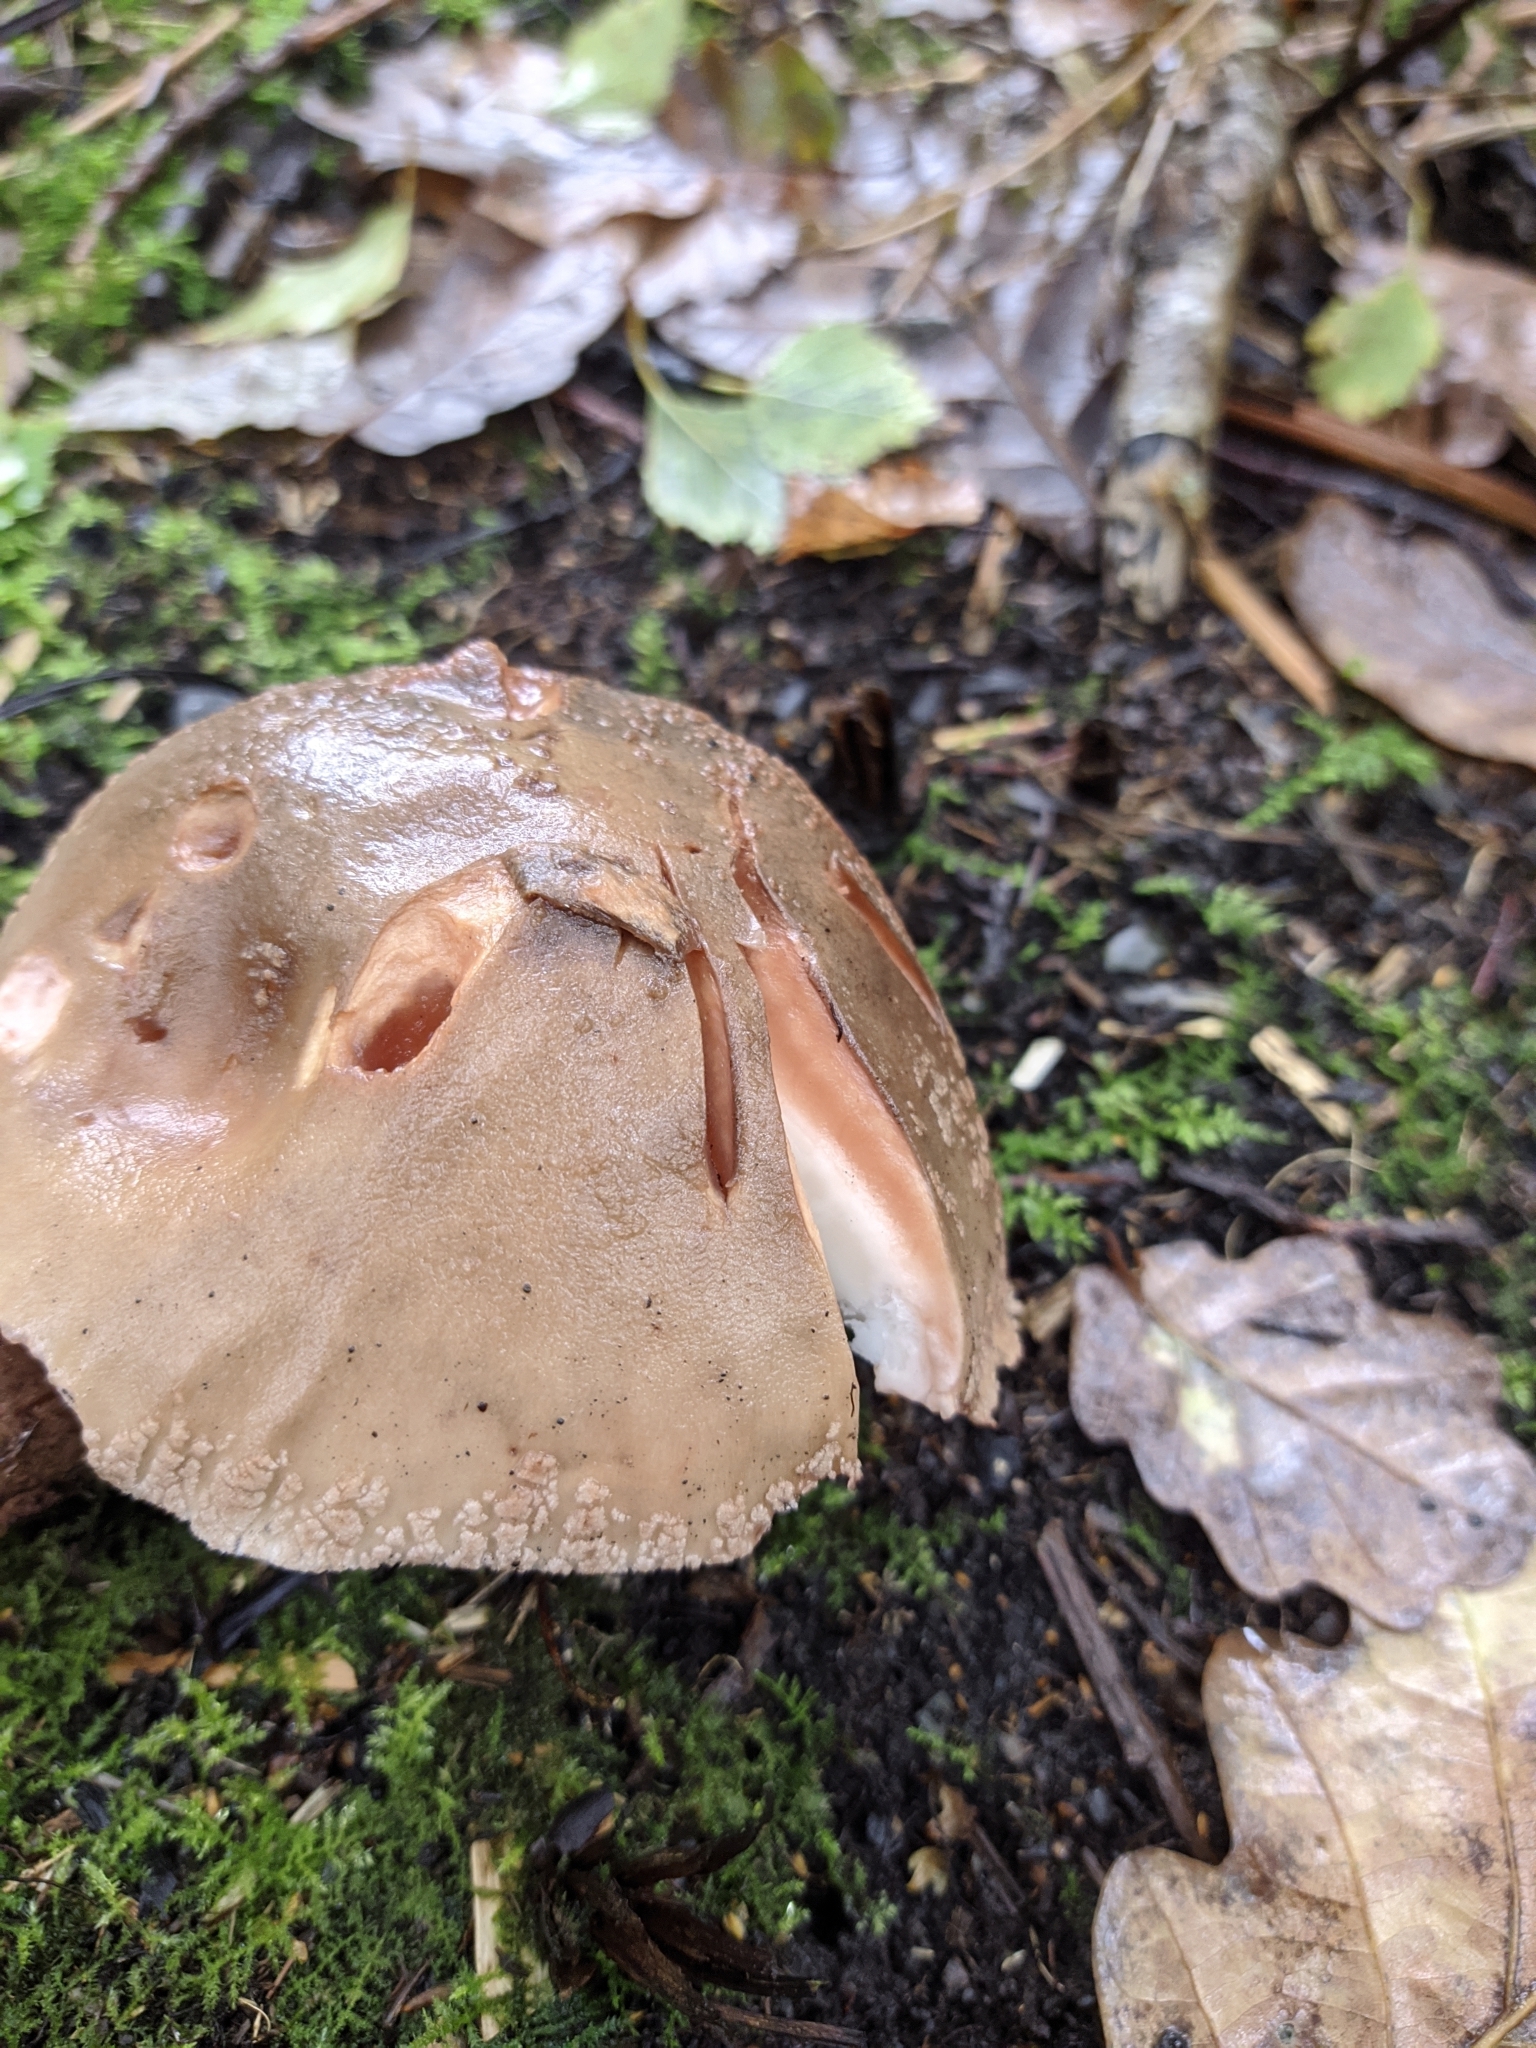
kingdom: Fungi
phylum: Basidiomycota
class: Agaricomycetes
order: Agaricales
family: Amanitaceae
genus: Amanita
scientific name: Amanita rubescens
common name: Blusher
